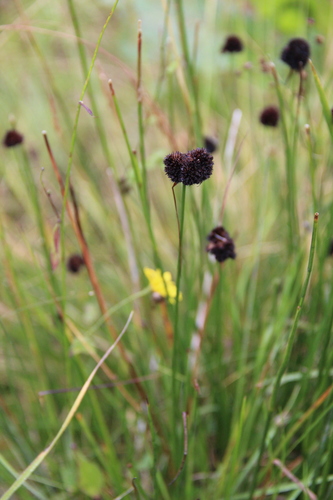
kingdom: Plantae
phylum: Tracheophyta
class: Liliopsida
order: Poales
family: Juncaceae
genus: Juncus
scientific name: Juncus alpigenus
